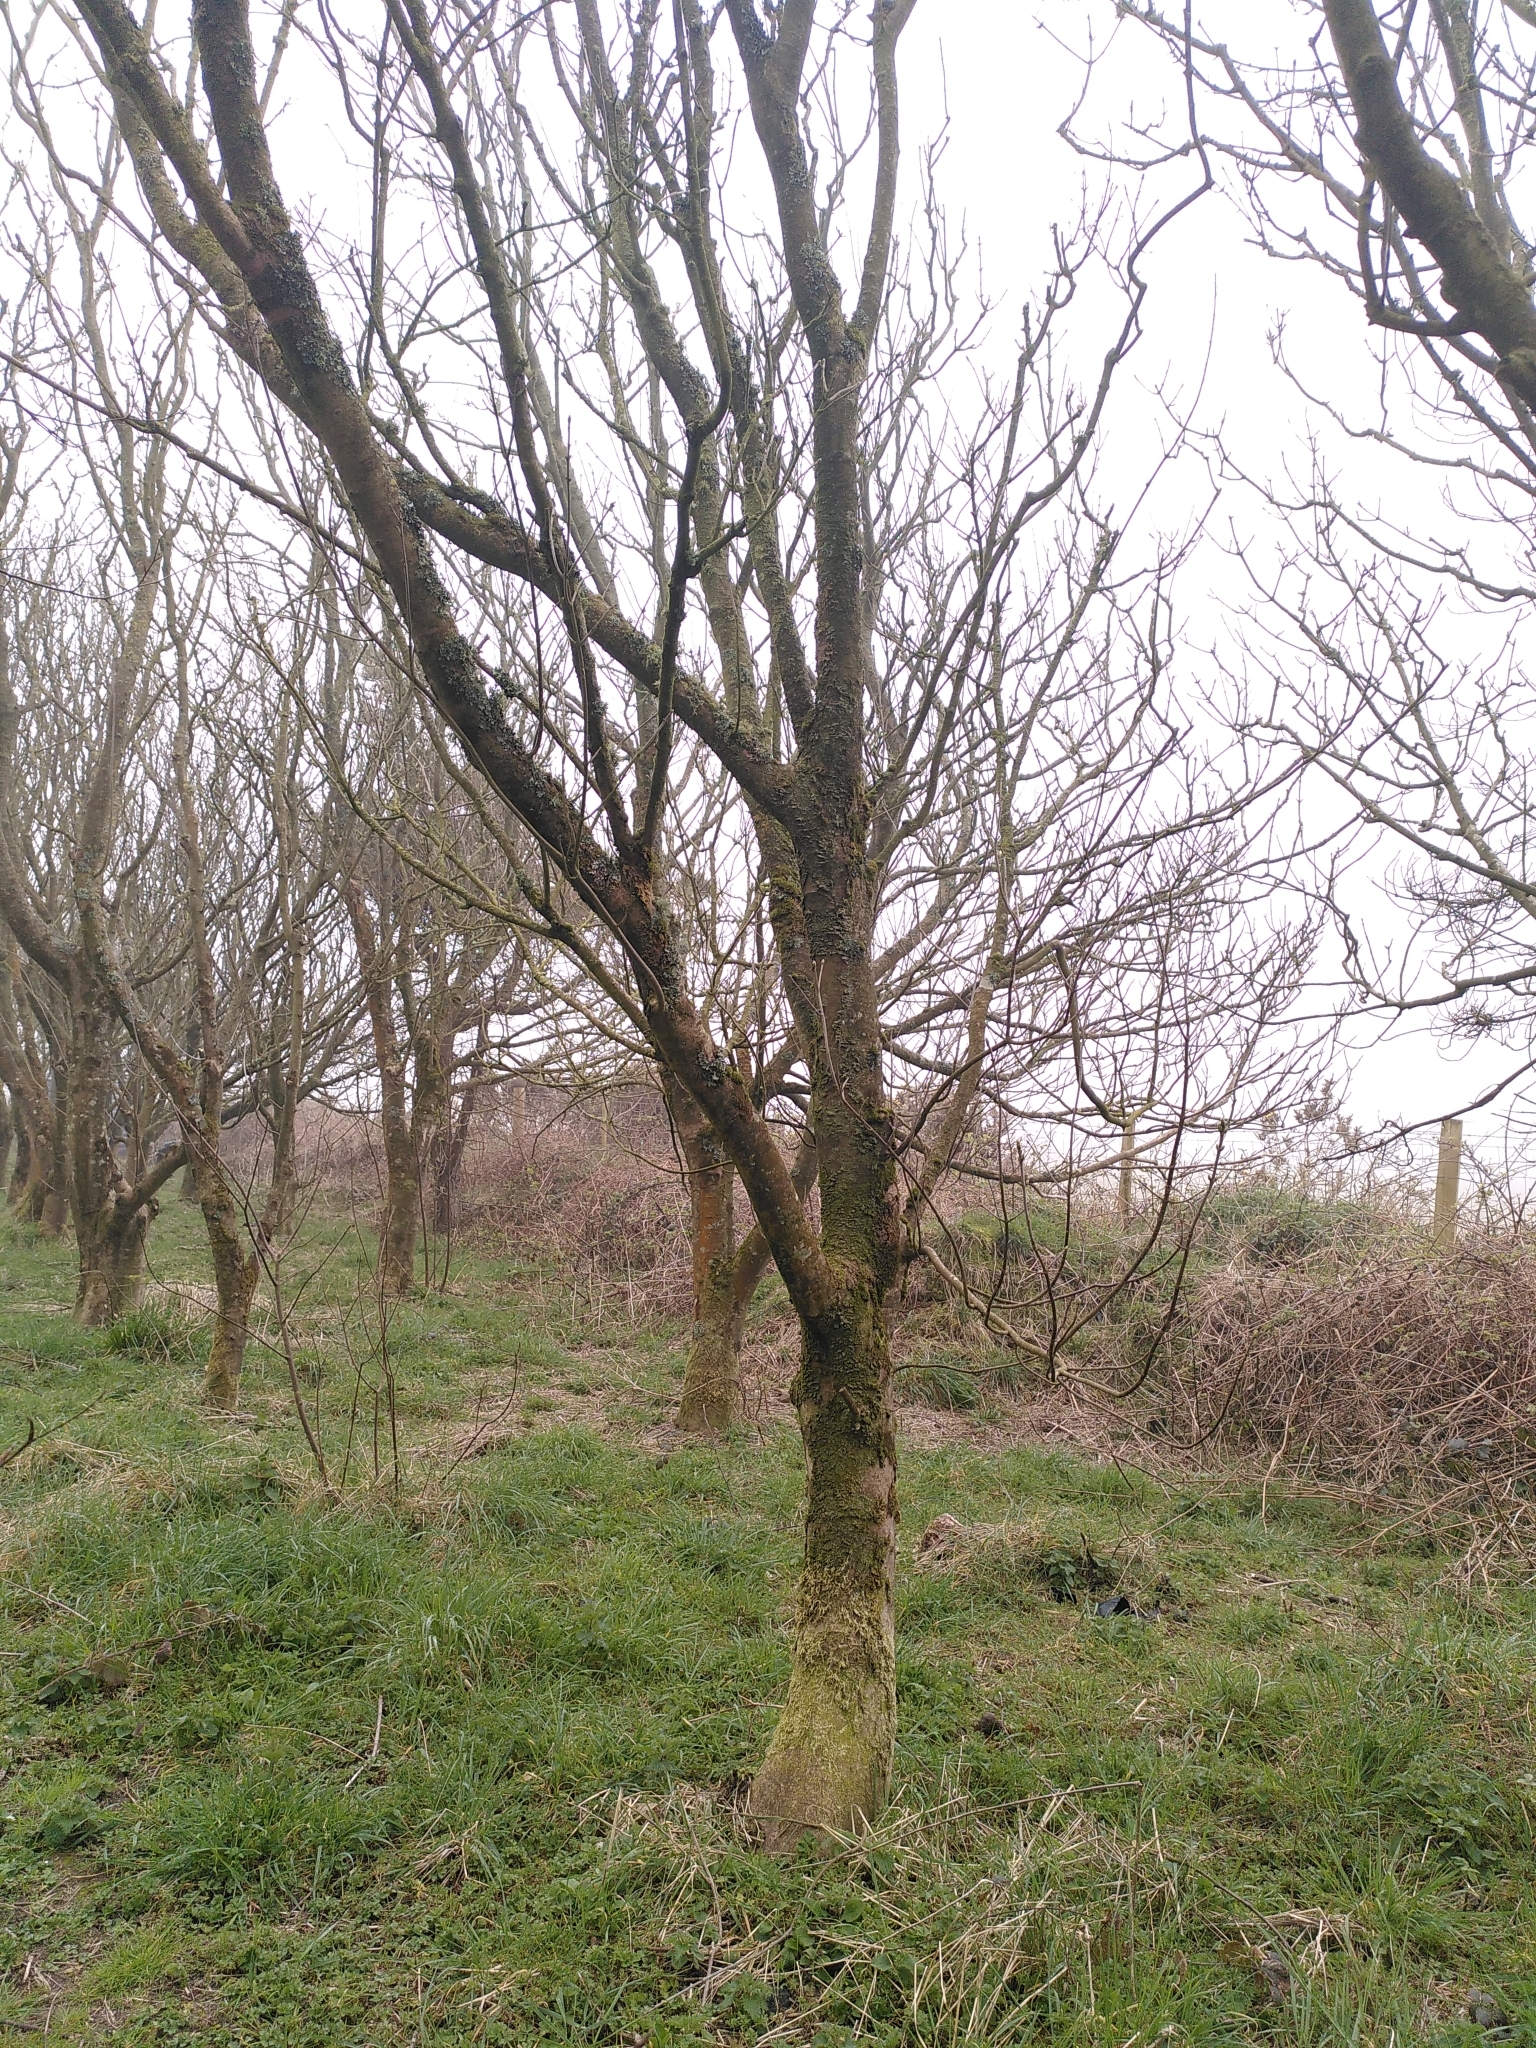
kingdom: Plantae
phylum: Tracheophyta
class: Magnoliopsida
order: Sapindales
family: Sapindaceae
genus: Acer
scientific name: Acer pseudoplatanus
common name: Sycamore
